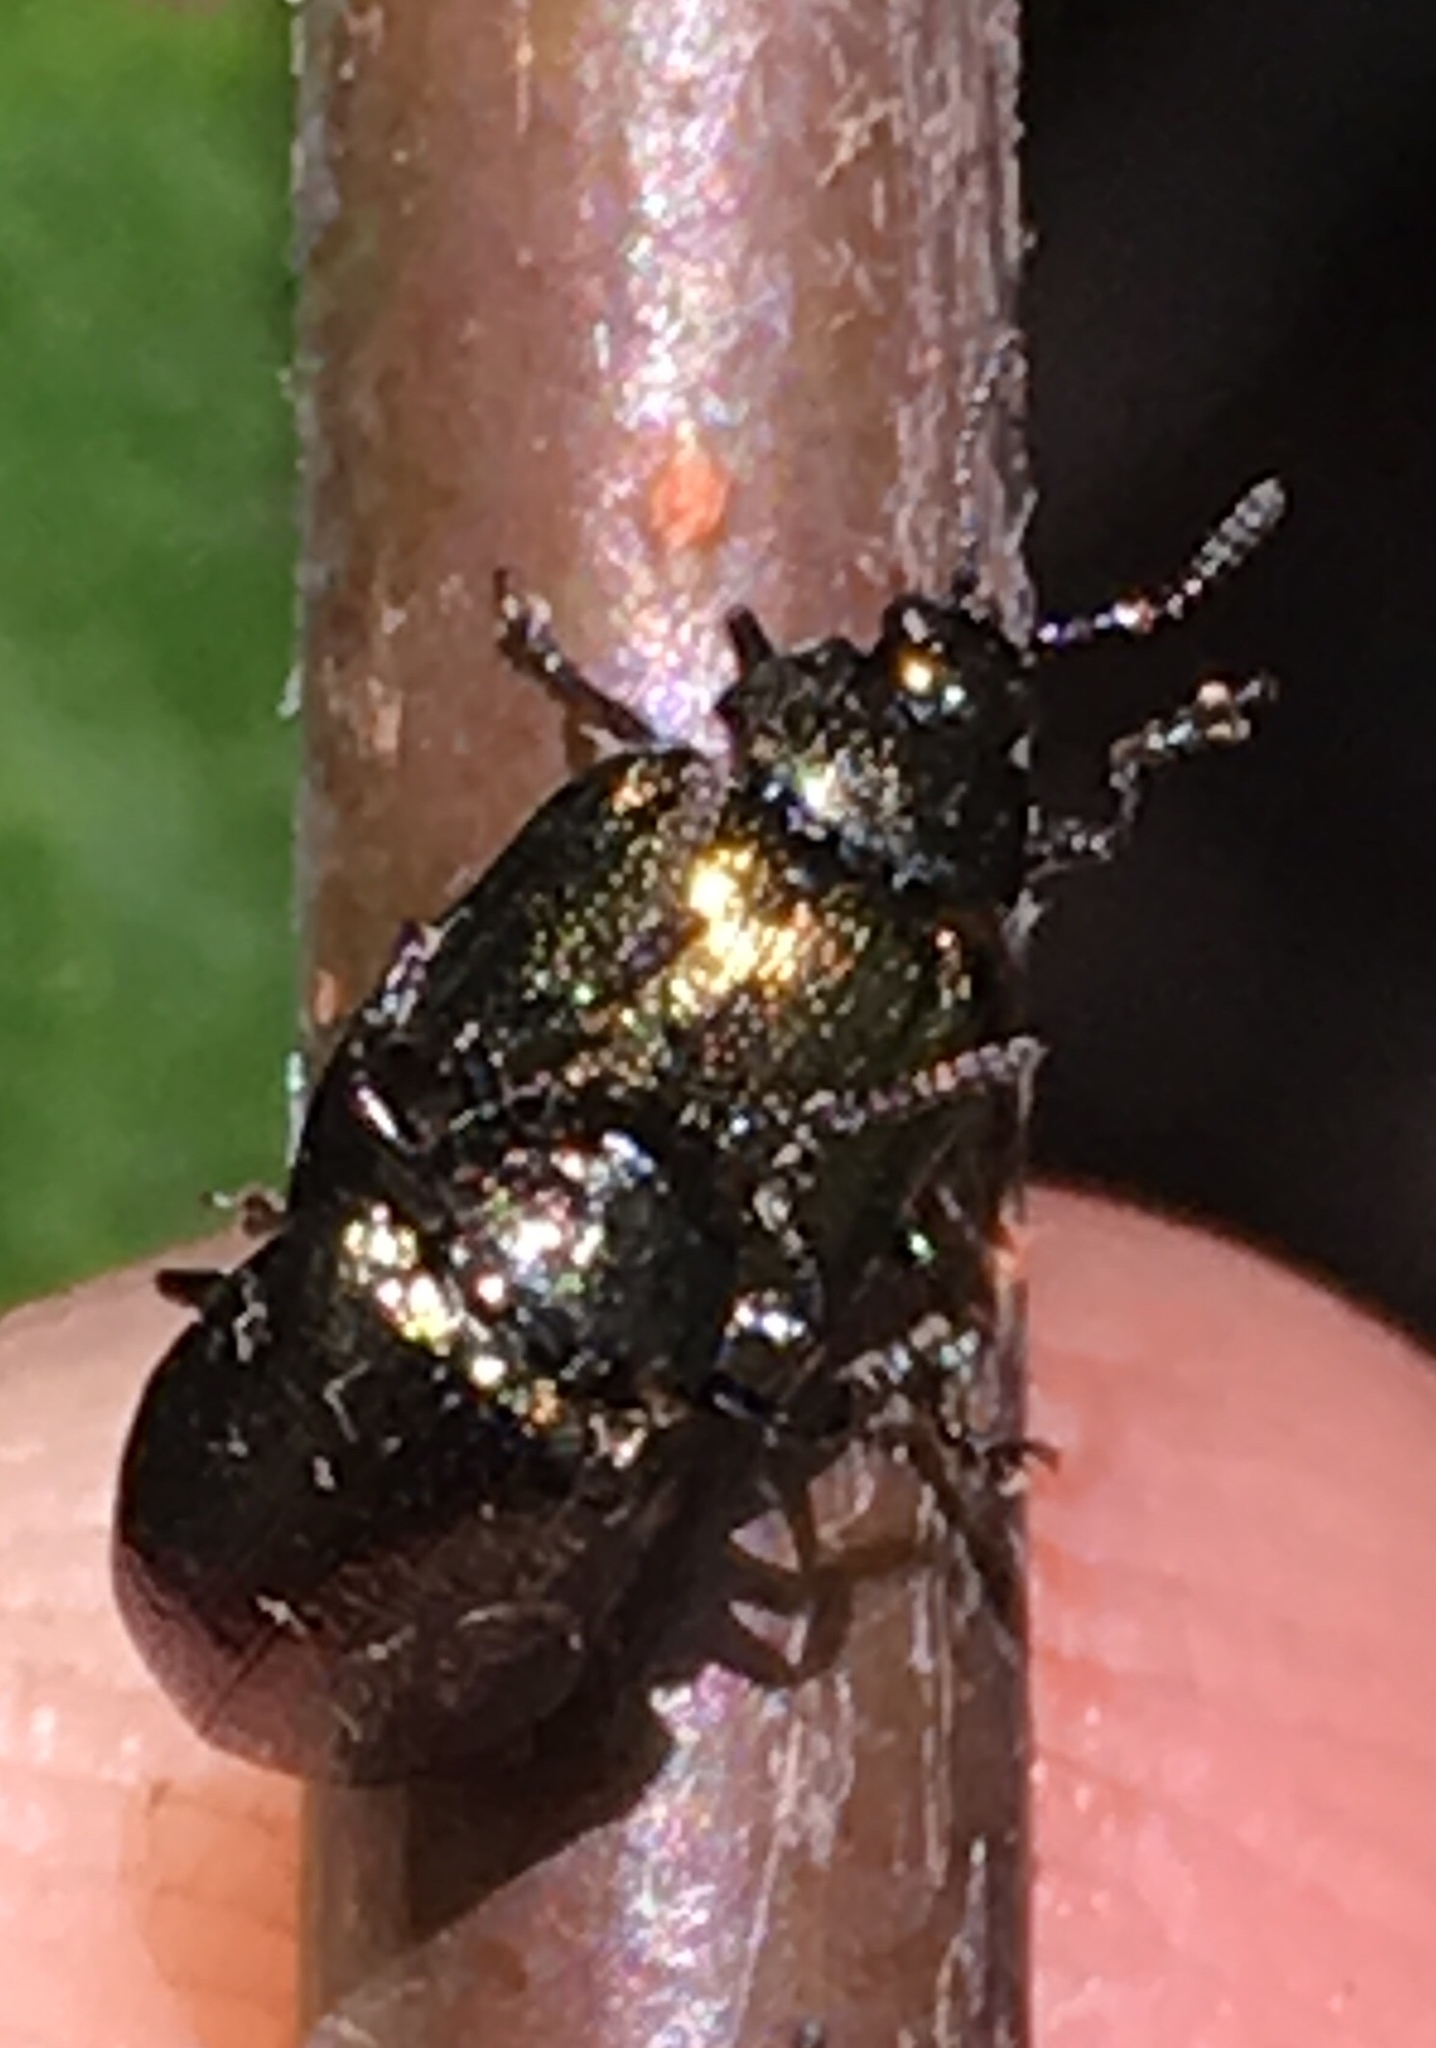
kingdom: Animalia
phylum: Arthropoda
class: Insecta
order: Coleoptera
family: Chrysomelidae
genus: Plagiodera
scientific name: Plagiodera californica
